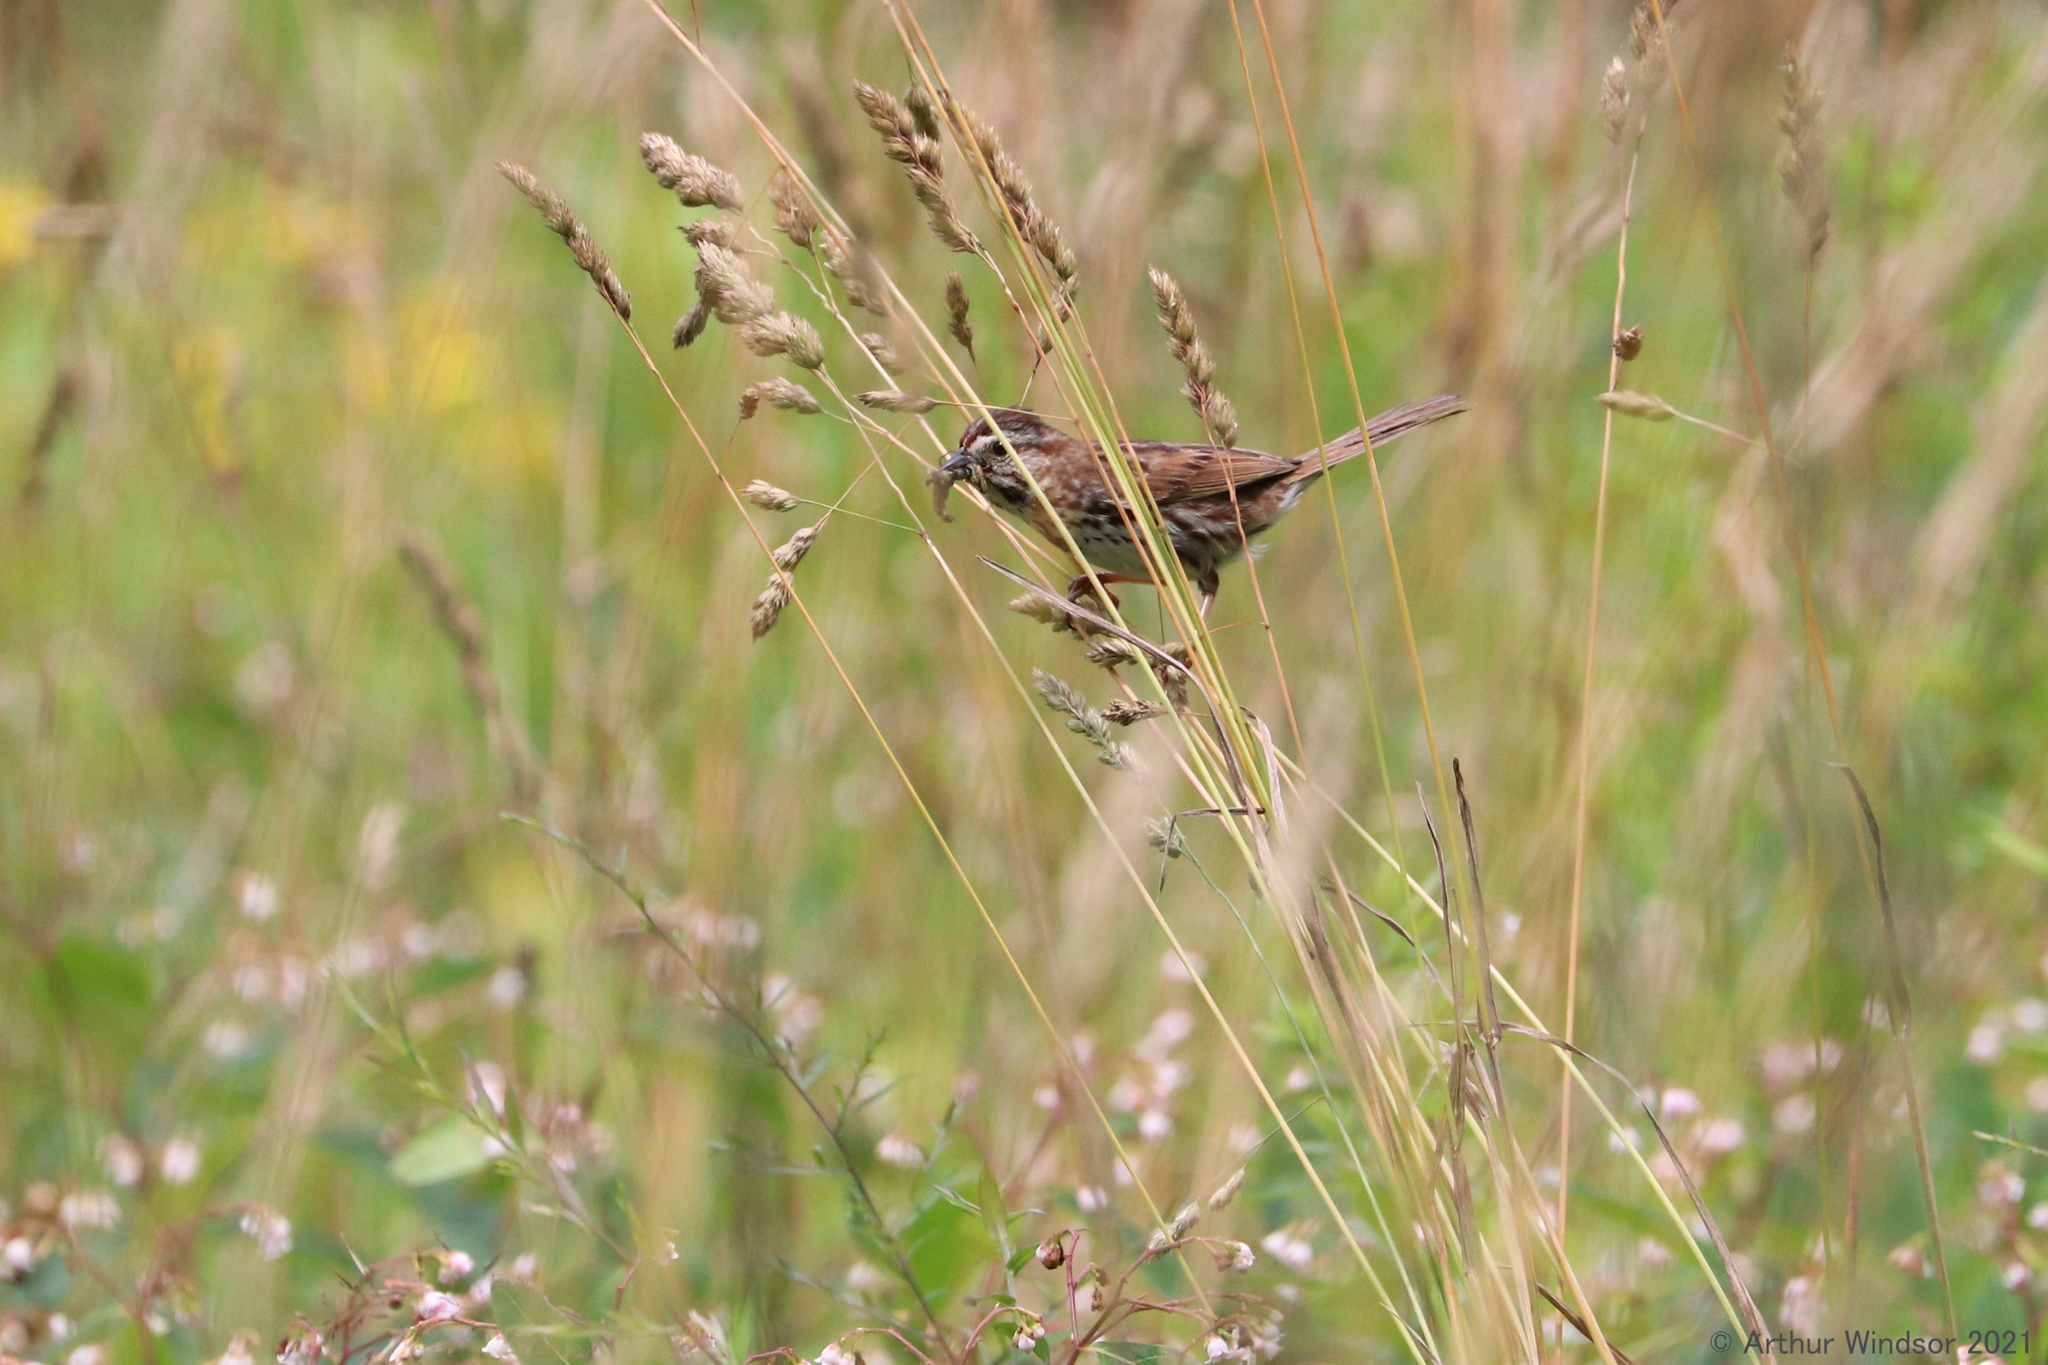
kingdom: Animalia
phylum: Chordata
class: Aves
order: Passeriformes
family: Passerellidae
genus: Melospiza
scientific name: Melospiza melodia
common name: Song sparrow
